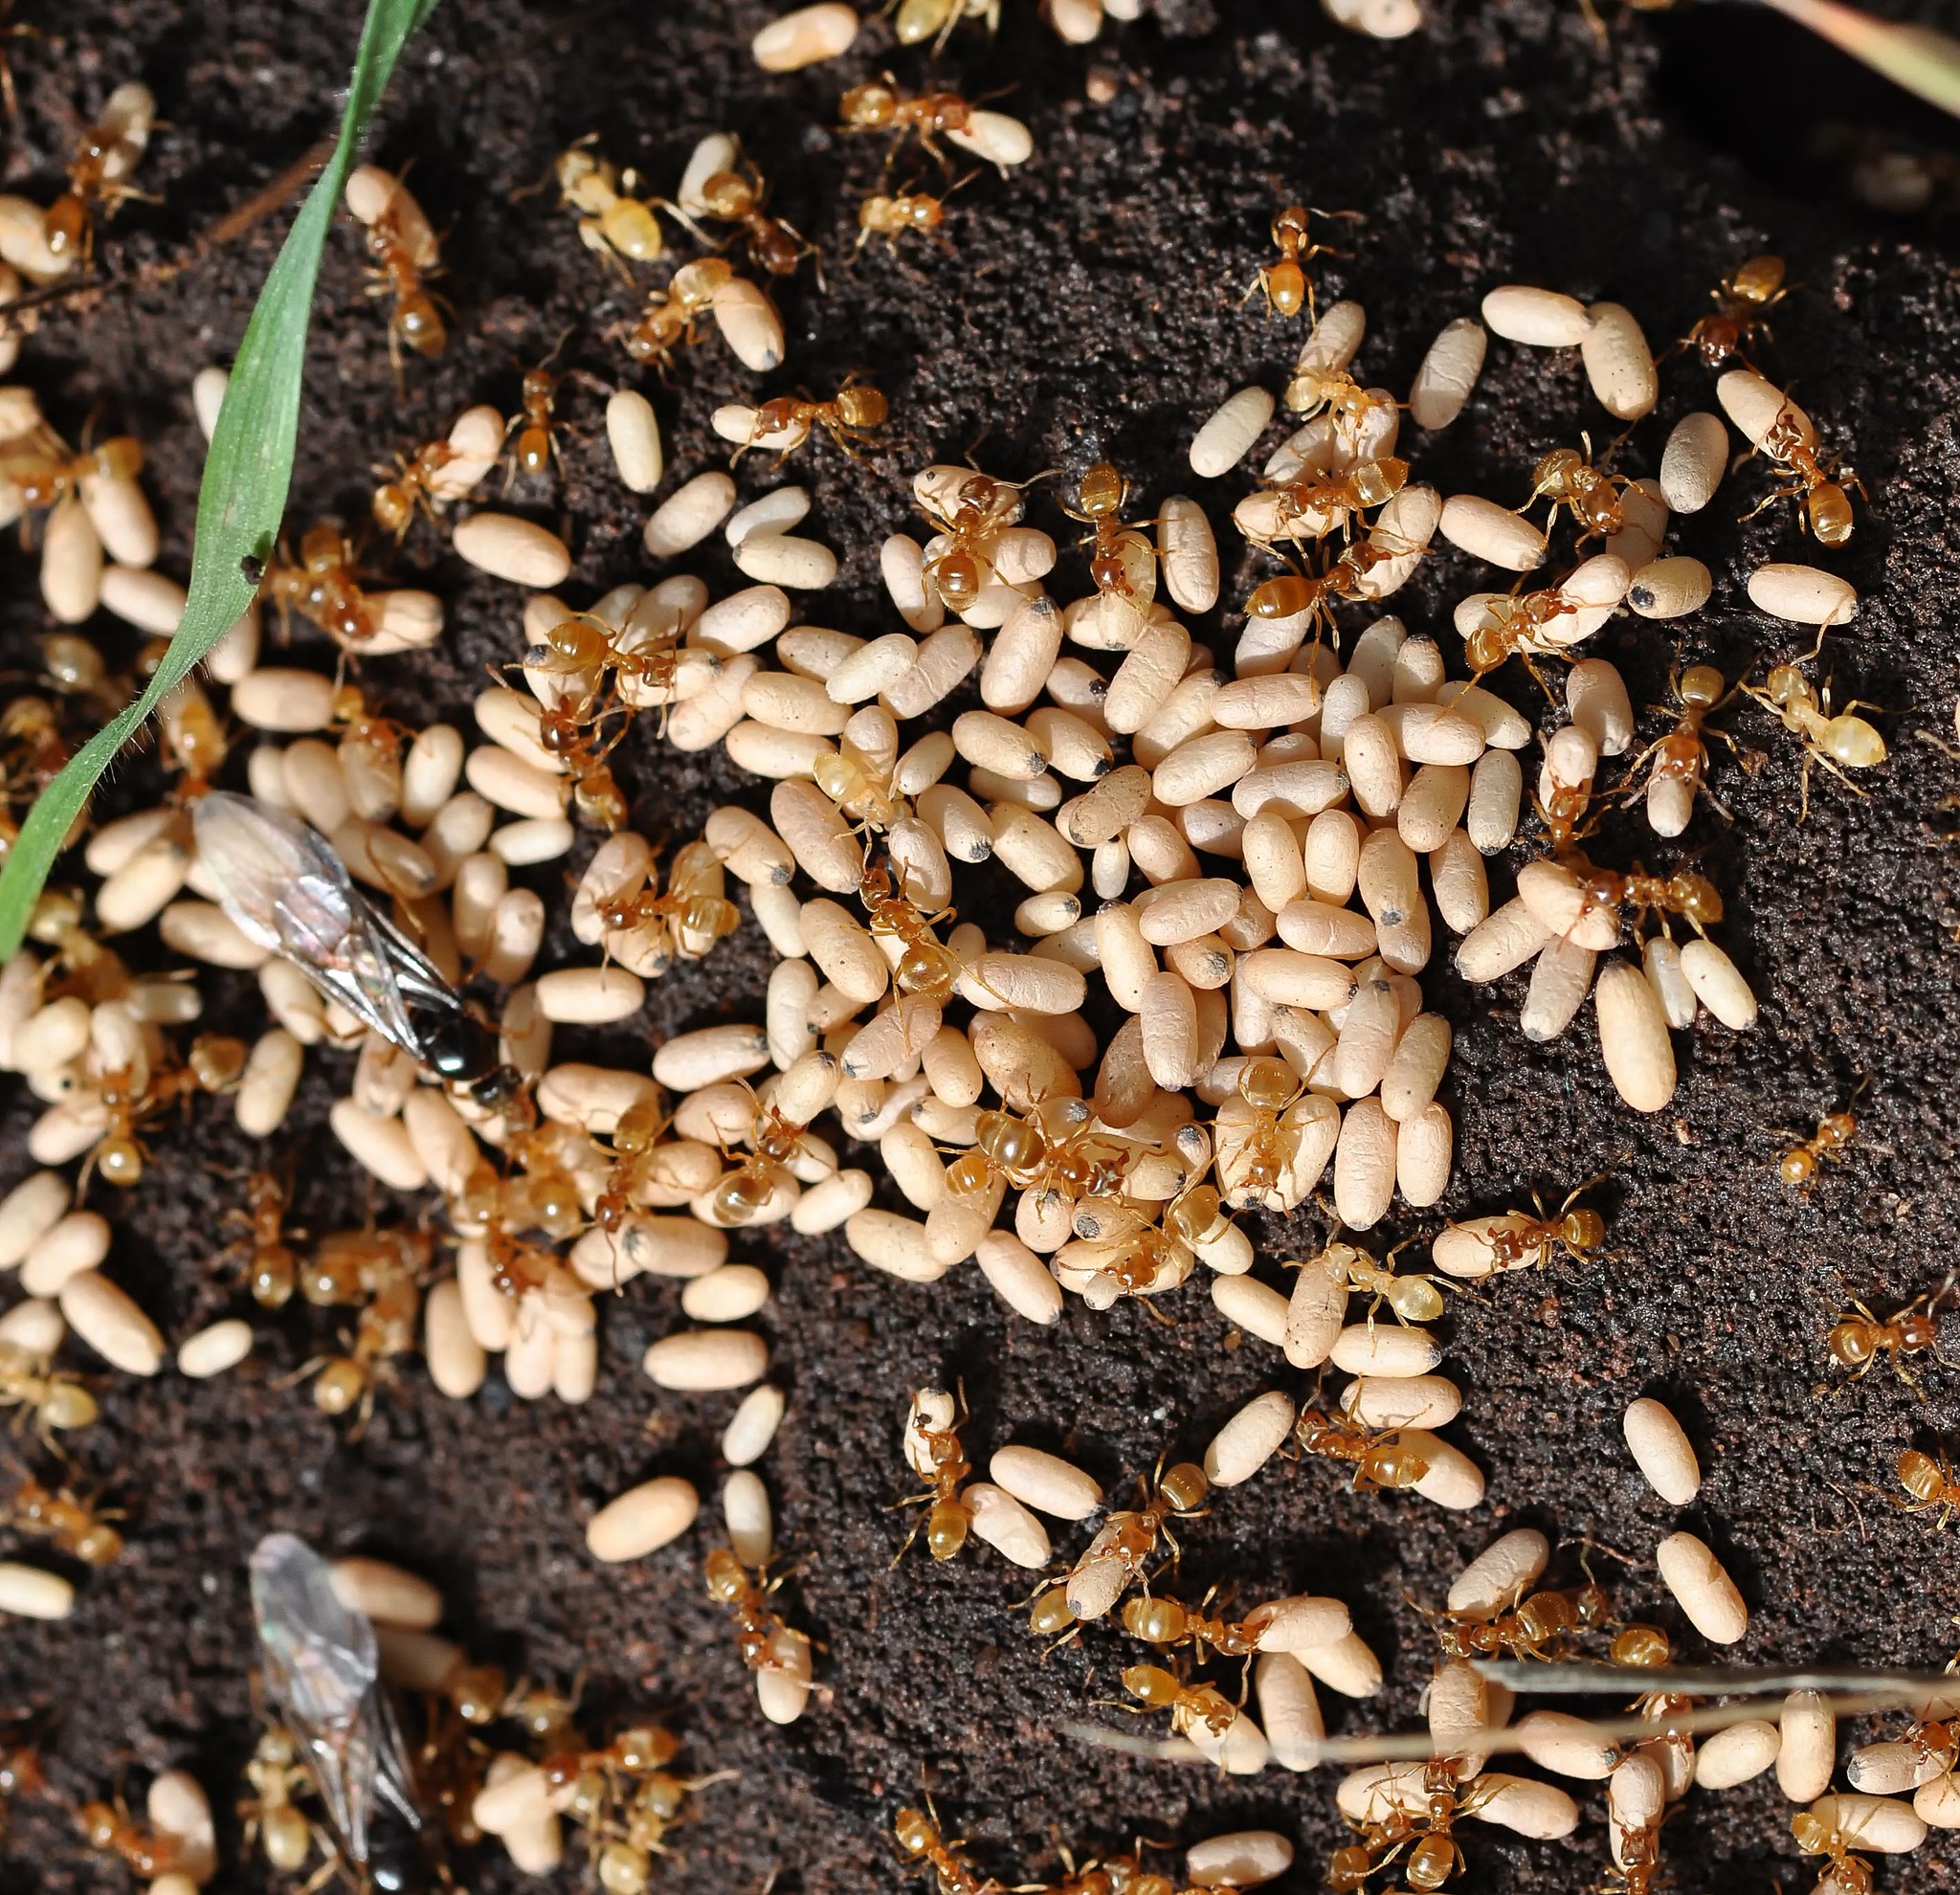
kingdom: Animalia
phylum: Arthropoda
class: Insecta
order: Hymenoptera
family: Formicidae
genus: Lasius
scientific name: Lasius flavus
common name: Blond field ant
